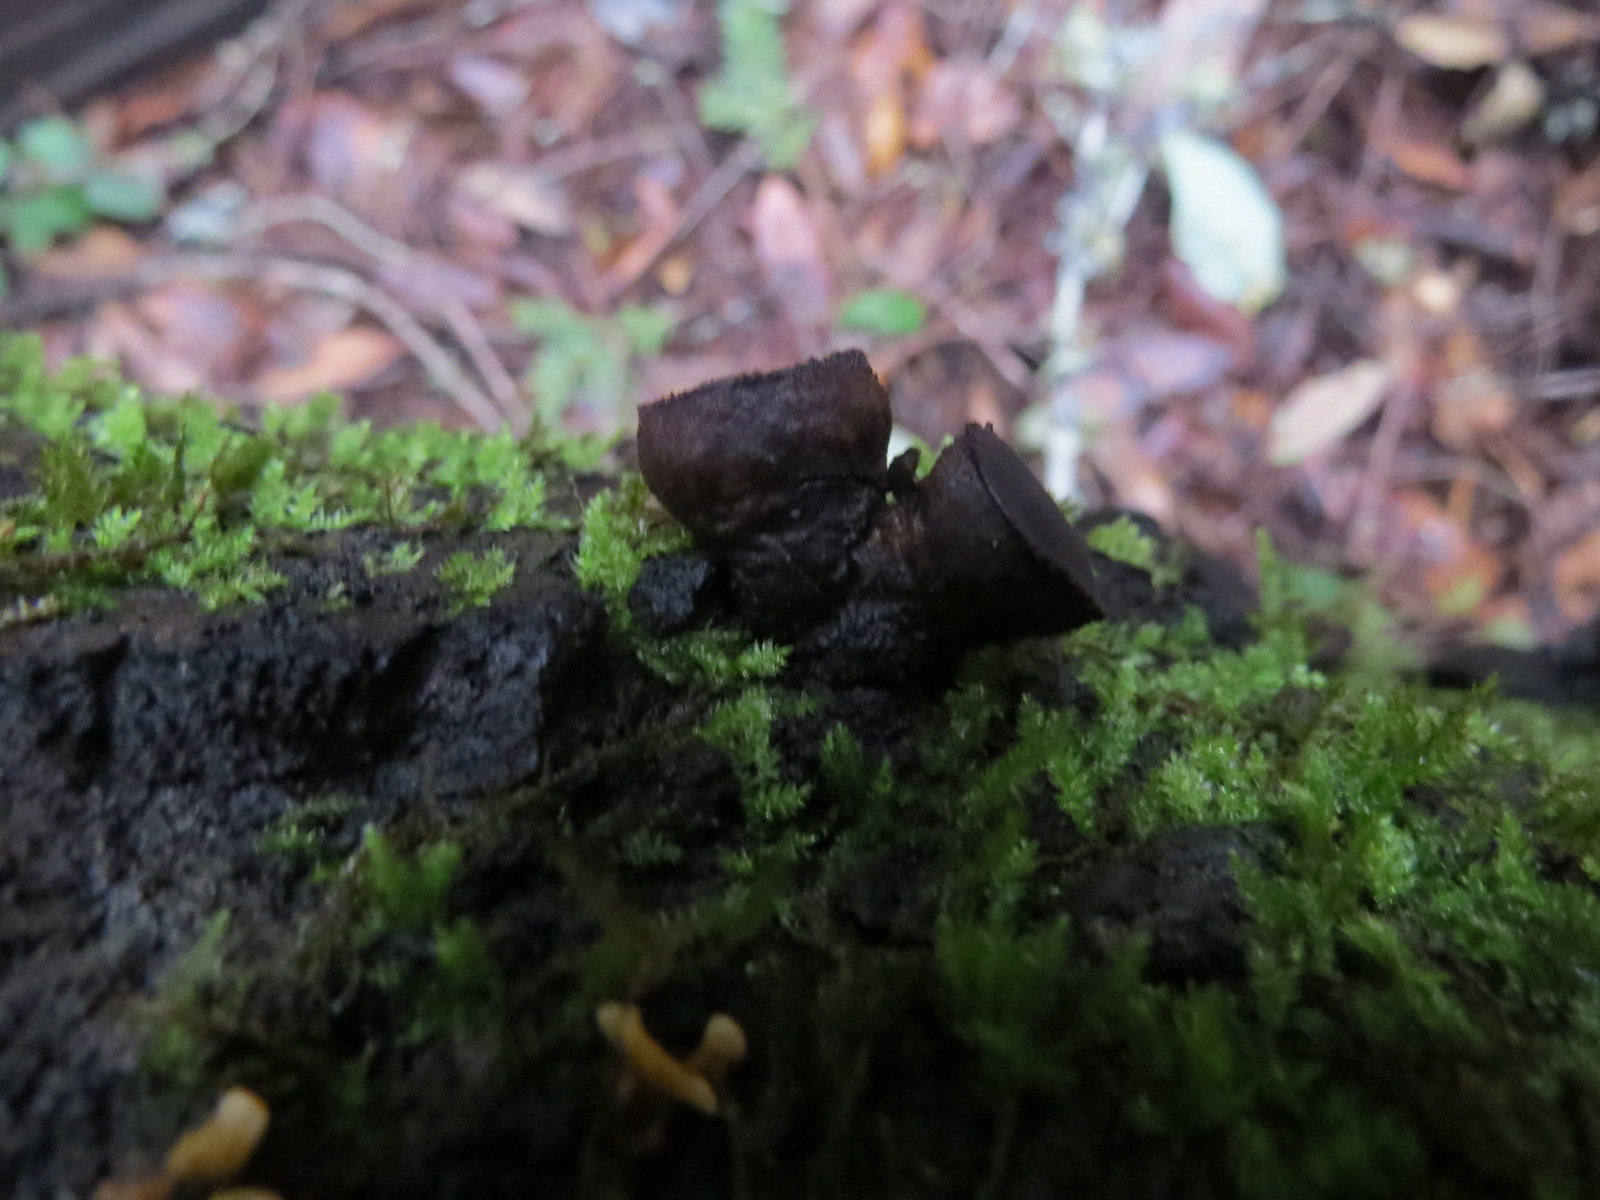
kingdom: Fungi
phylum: Ascomycota
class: Leotiomycetes
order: Phacidiales
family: Phacidiaceae
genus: Bulgaria
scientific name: Bulgaria inquinans
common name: Black bulgar
